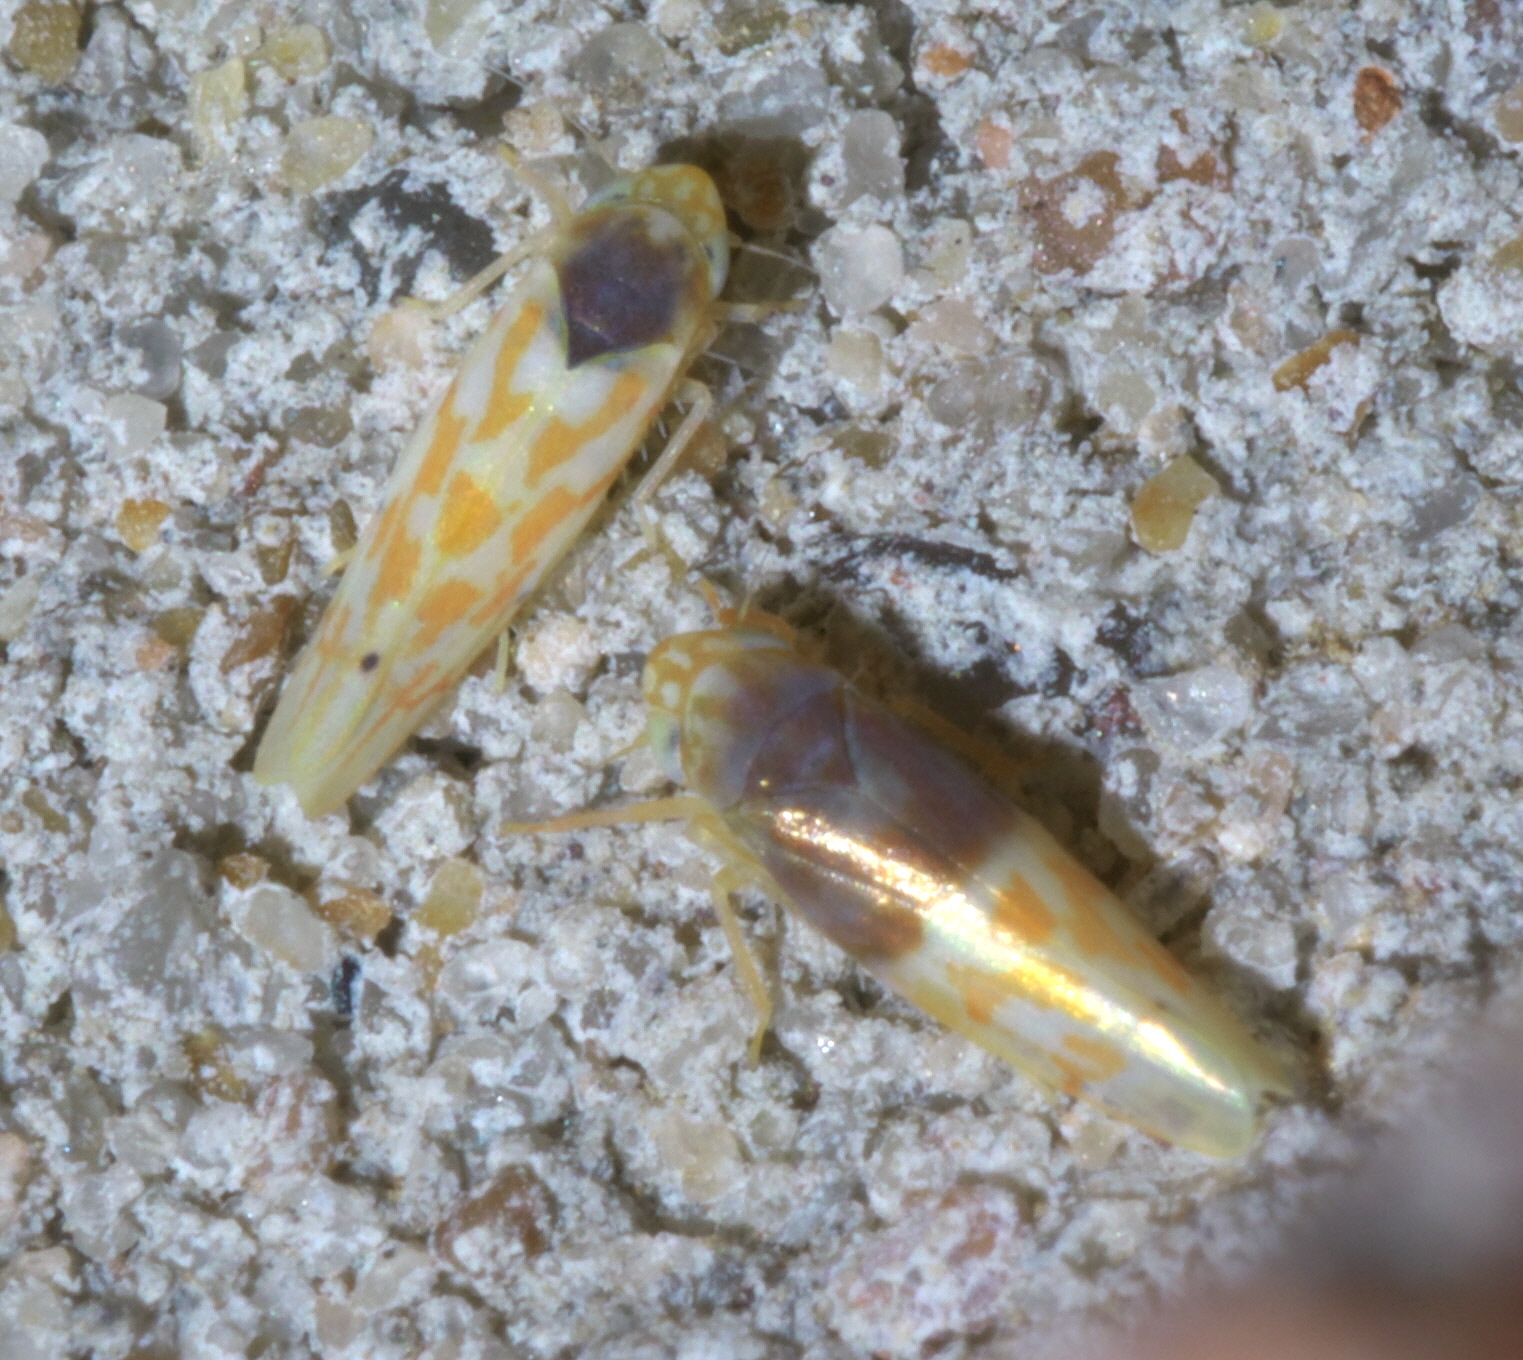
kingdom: Animalia
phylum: Arthropoda
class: Insecta
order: Hemiptera
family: Cicadellidae
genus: Eratoneura
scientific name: Eratoneura ardens
